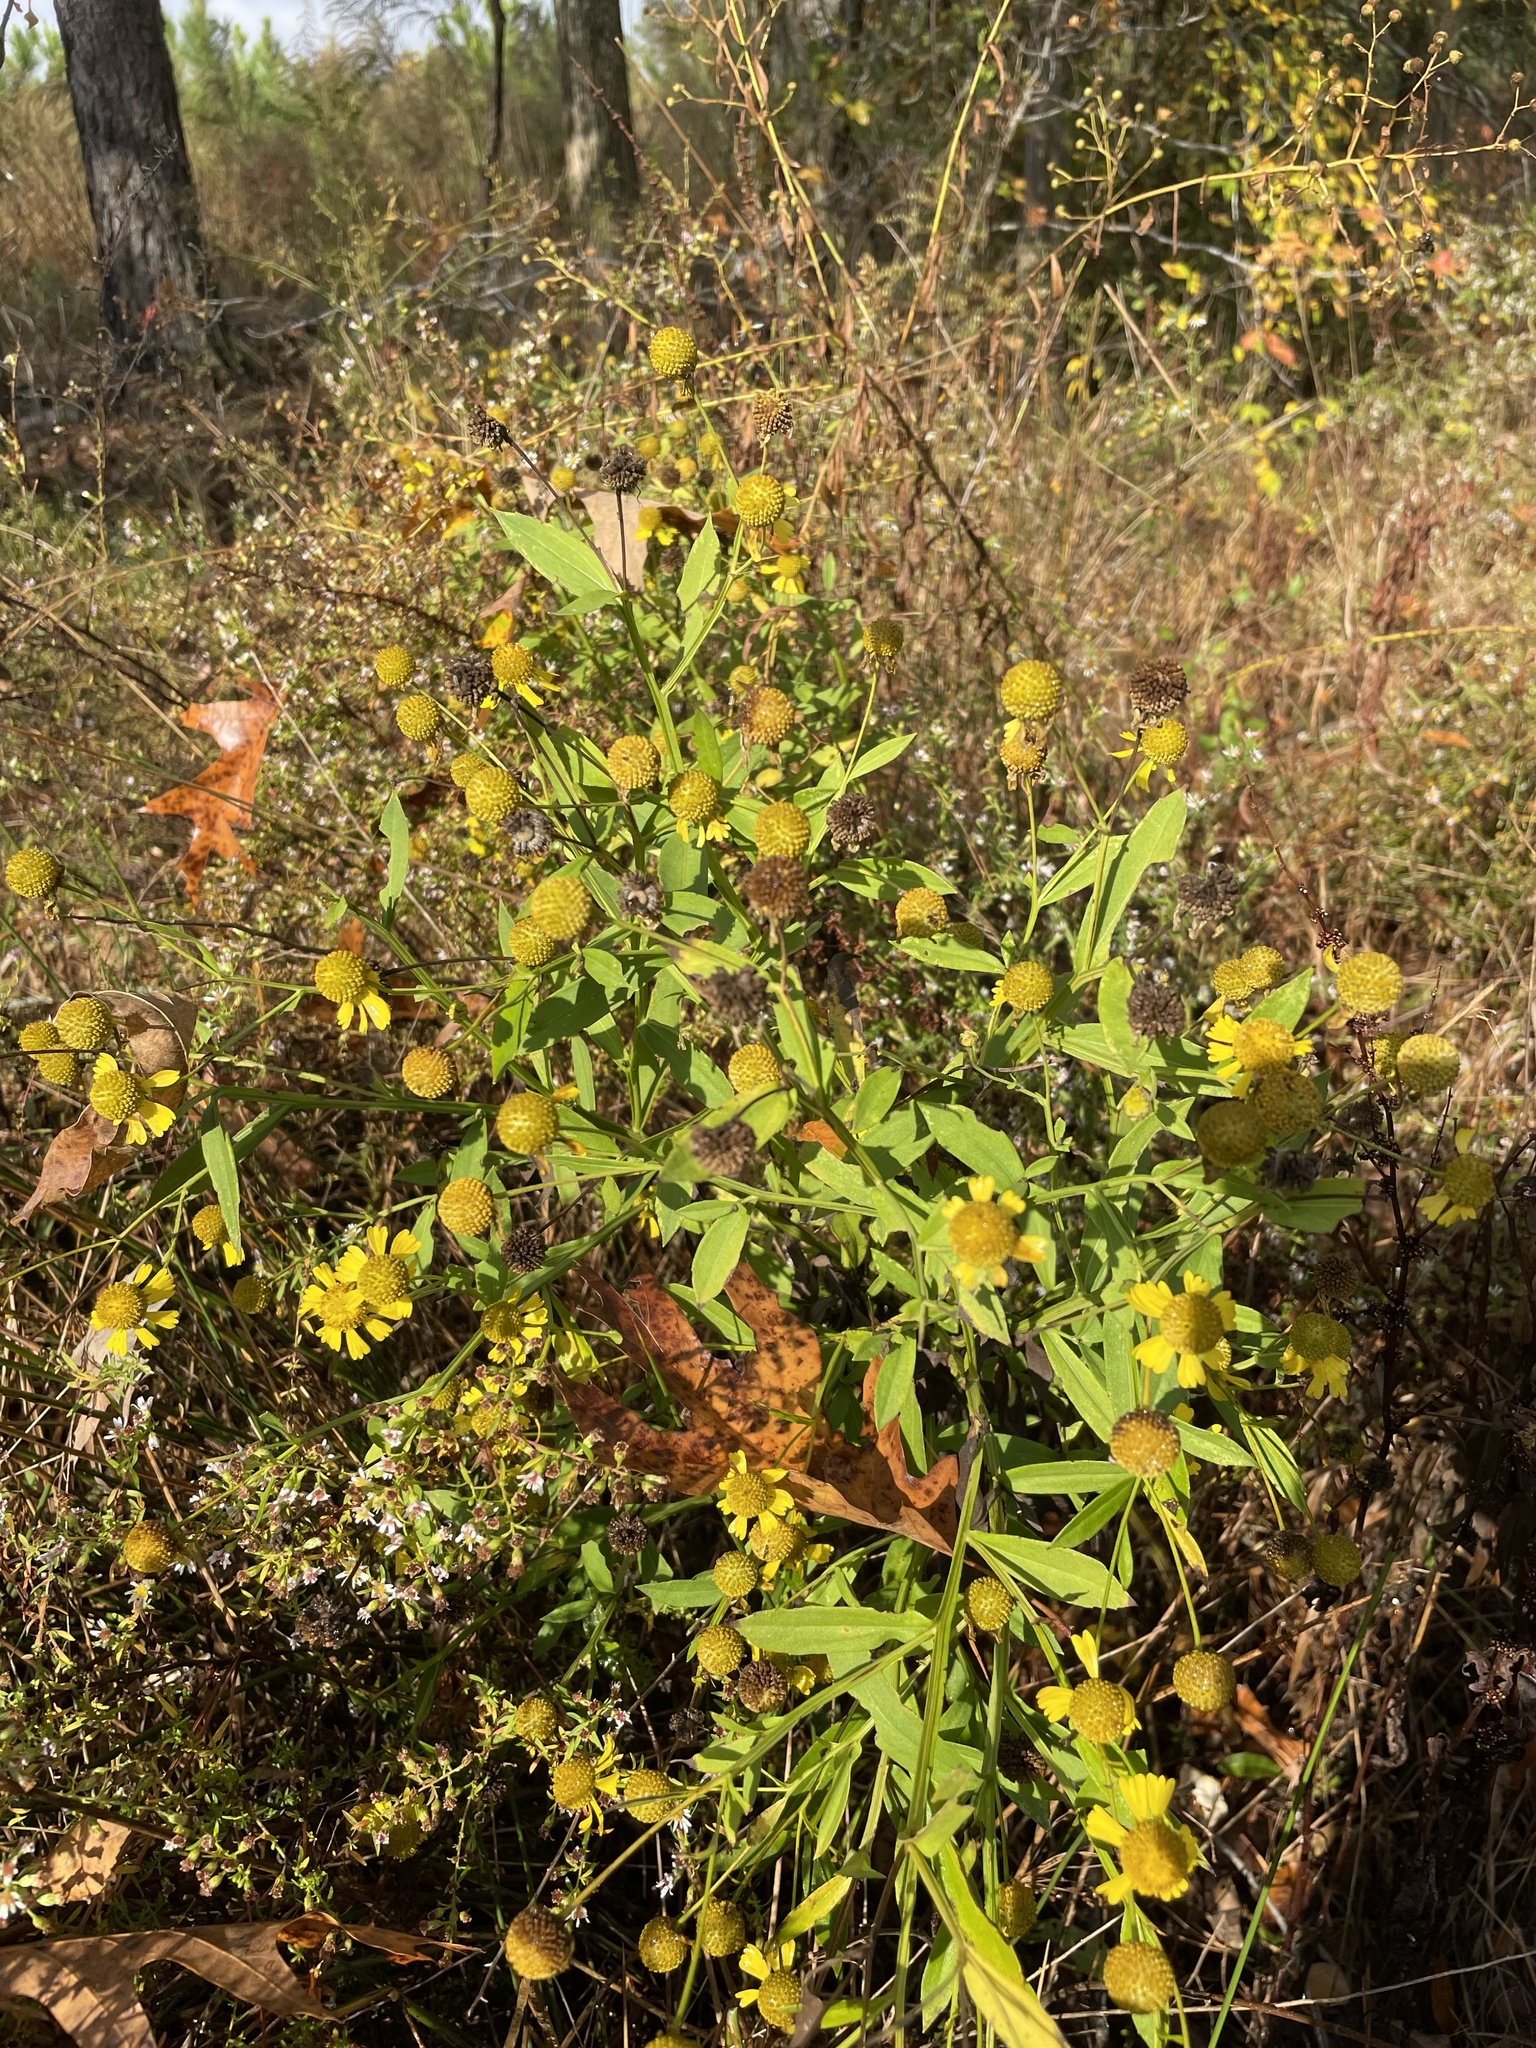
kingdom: Plantae
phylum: Tracheophyta
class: Magnoliopsida
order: Asterales
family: Asteraceae
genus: Helenium
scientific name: Helenium autumnale
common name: Sneezeweed
